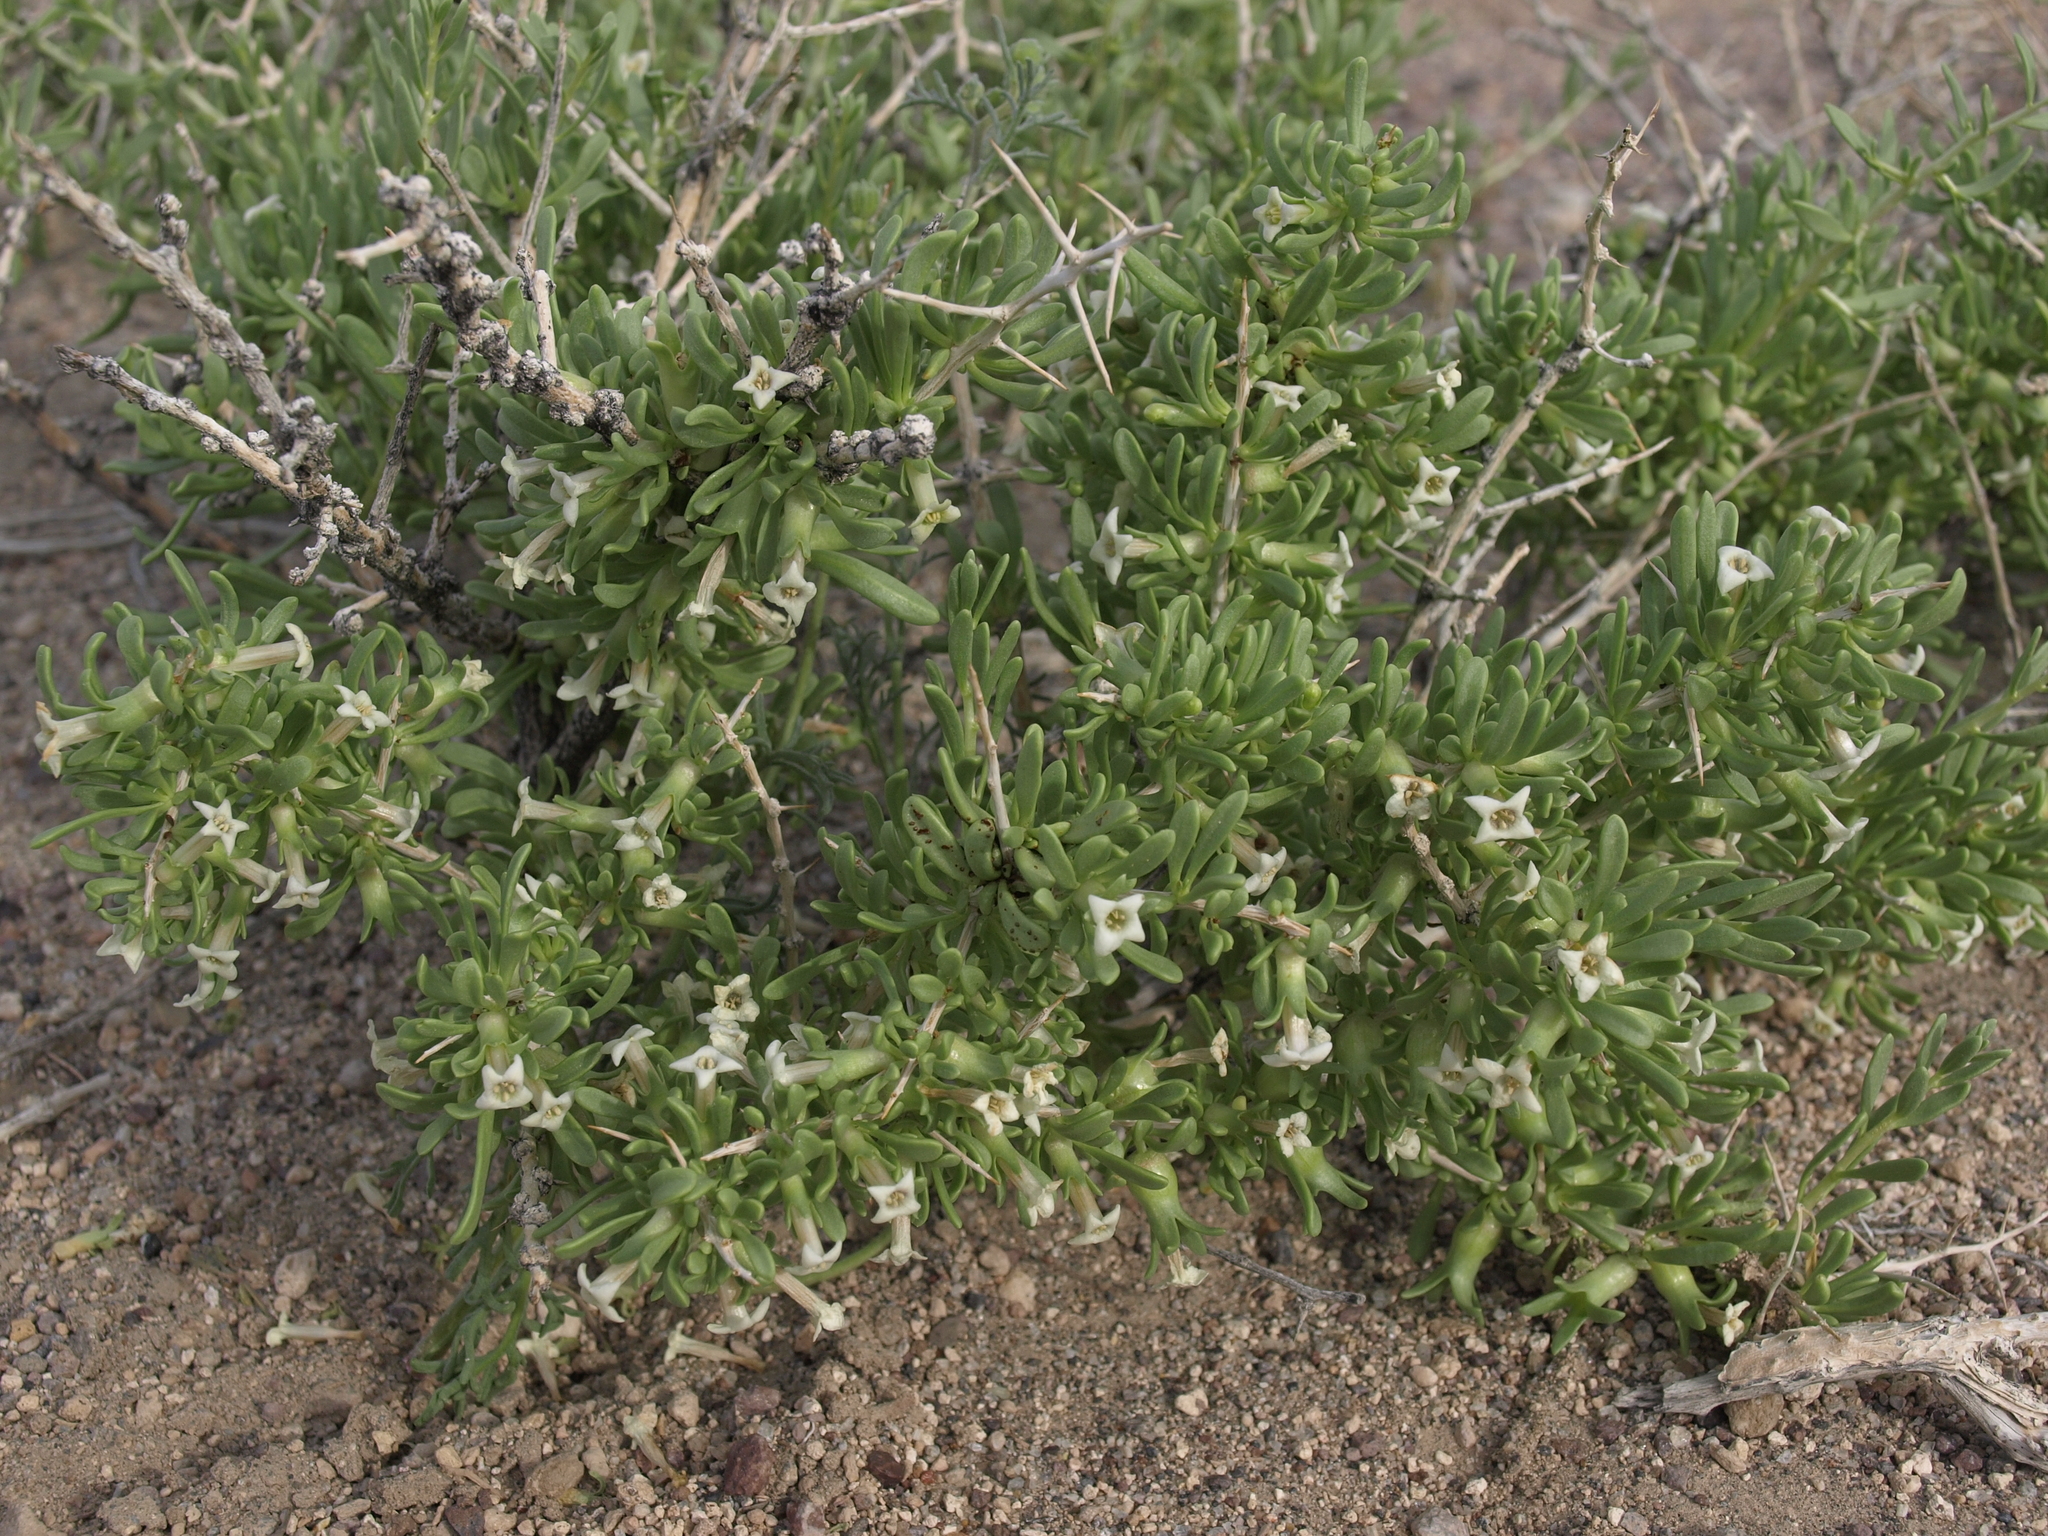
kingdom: Plantae
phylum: Tracheophyta
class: Magnoliopsida
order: Solanales
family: Solanaceae
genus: Lycium
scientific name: Lycium shockleyi
